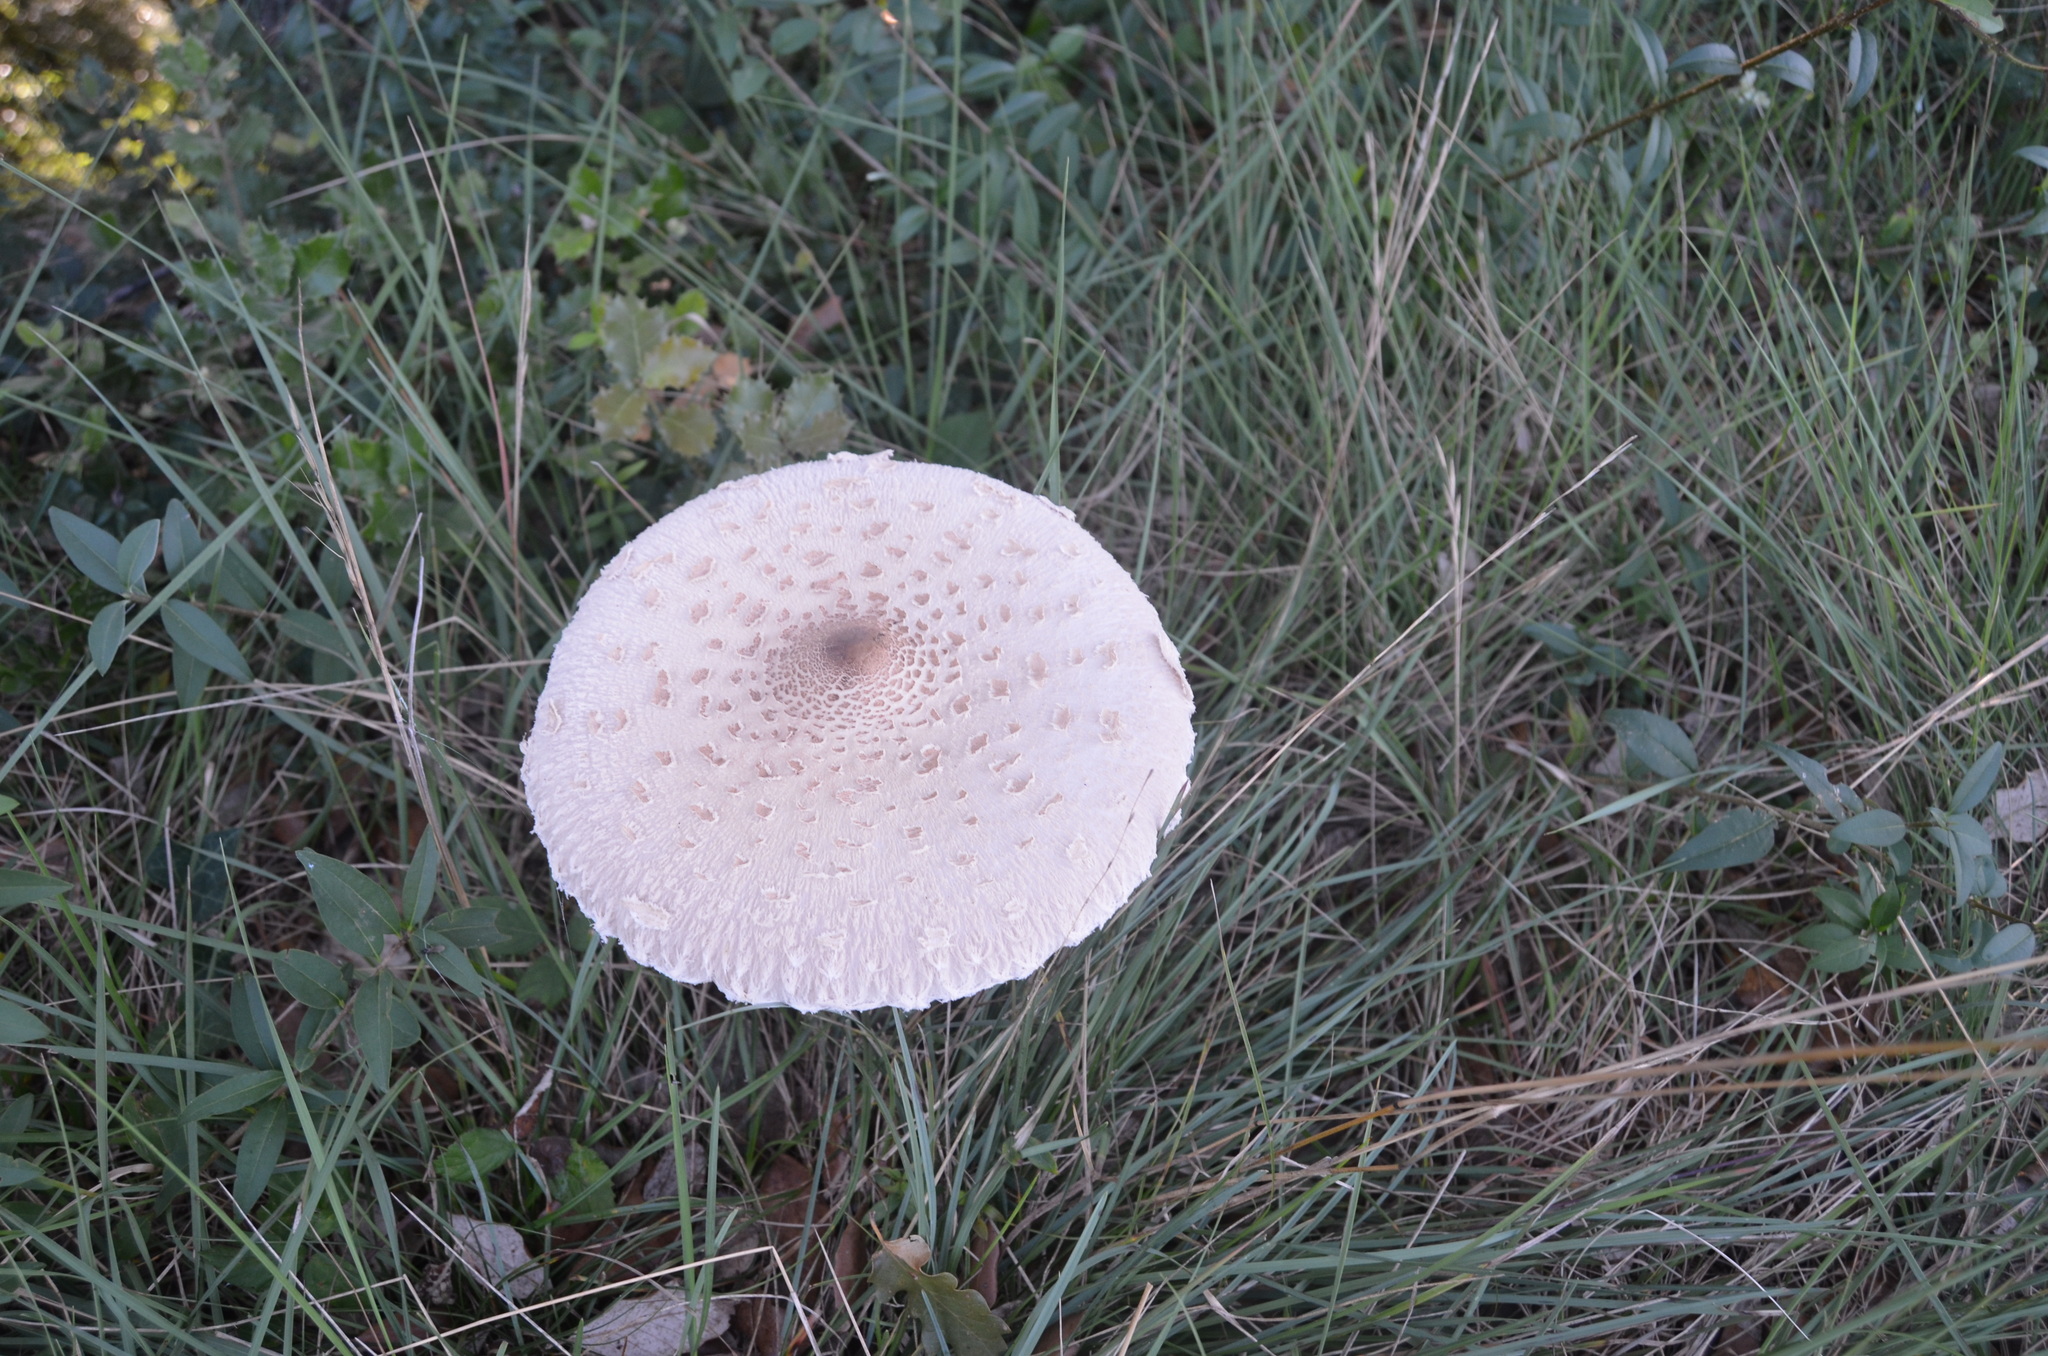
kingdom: Fungi
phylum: Basidiomycota
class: Agaricomycetes
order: Agaricales
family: Agaricaceae
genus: Macrolepiota
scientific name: Macrolepiota procera
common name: Parasol
